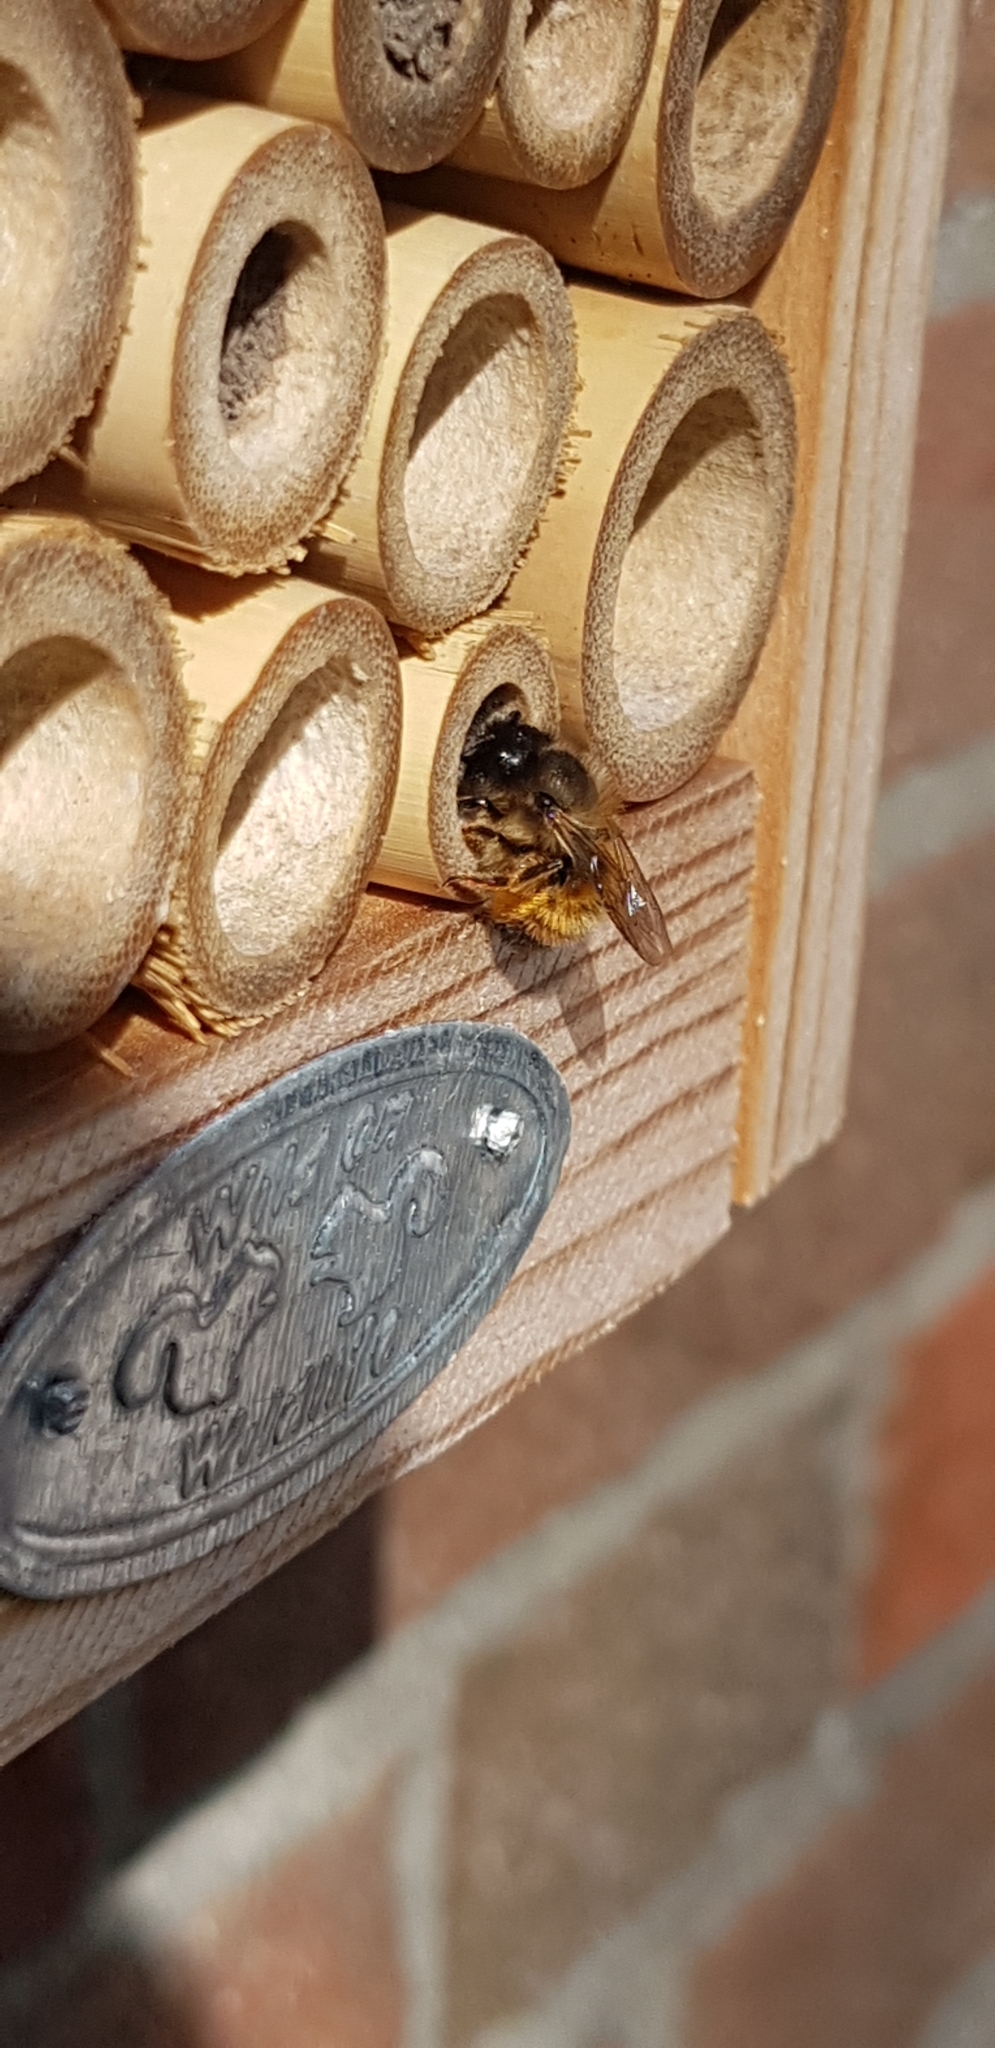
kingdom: Animalia
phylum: Arthropoda
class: Insecta
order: Hymenoptera
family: Megachilidae
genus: Osmia
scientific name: Osmia bicornis
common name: Red mason bee
